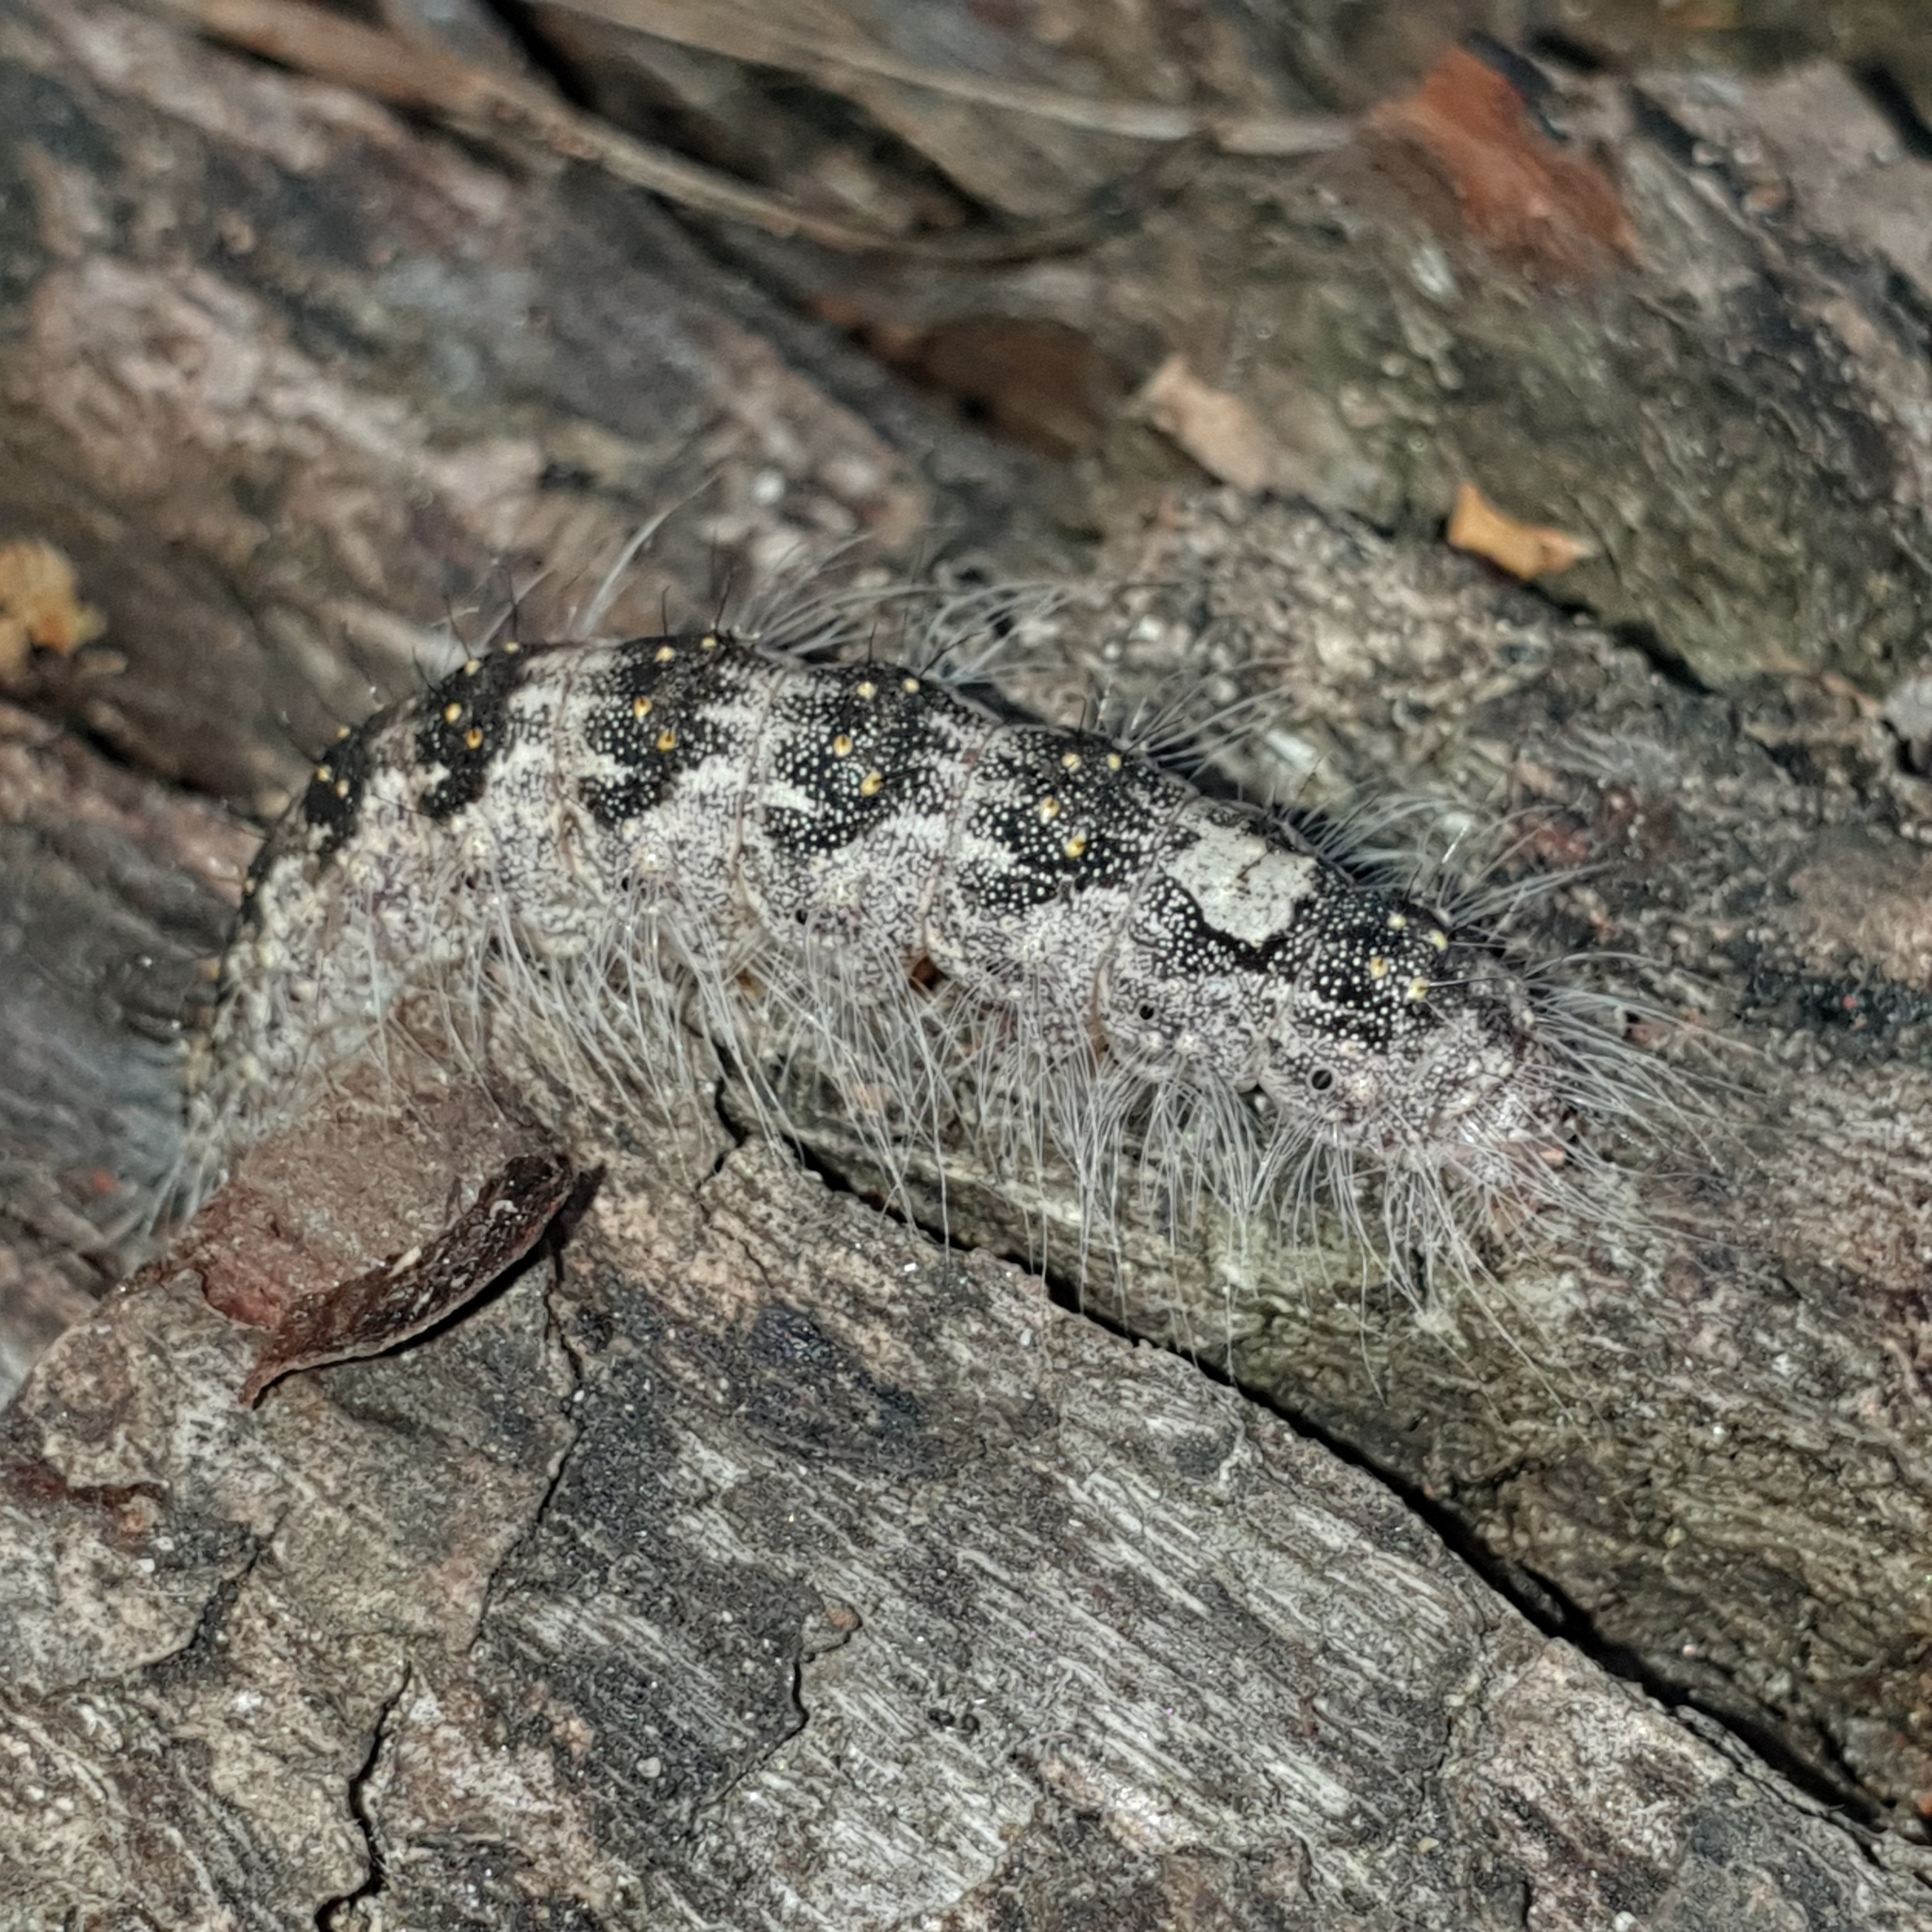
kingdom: Animalia
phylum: Arthropoda
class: Insecta
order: Lepidoptera
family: Noctuidae
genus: Acronicta
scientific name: Acronicta megacephala
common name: Poplar grey
